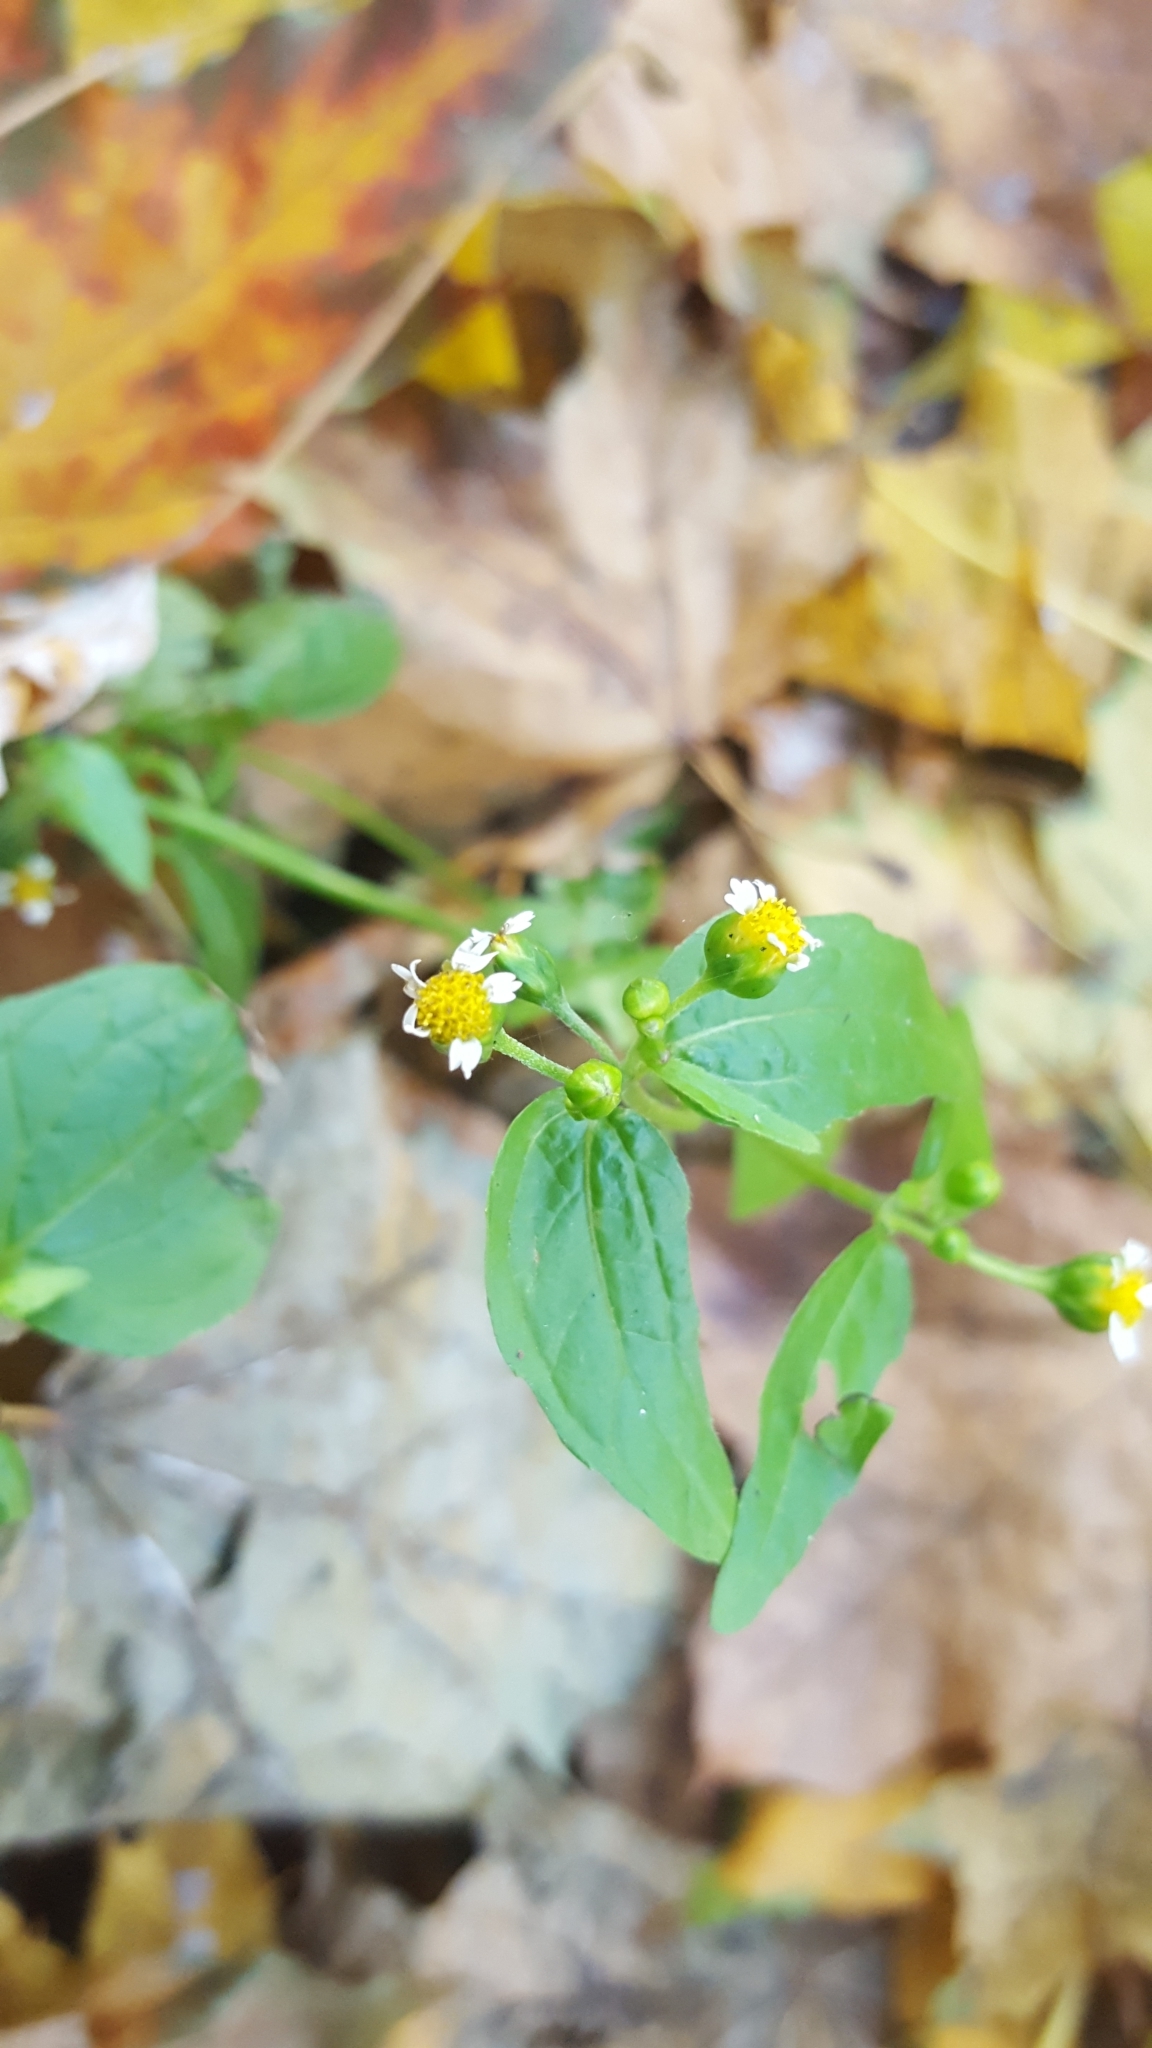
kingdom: Plantae
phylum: Tracheophyta
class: Magnoliopsida
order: Asterales
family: Asteraceae
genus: Galinsoga
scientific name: Galinsoga parviflora
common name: Gallant soldier
